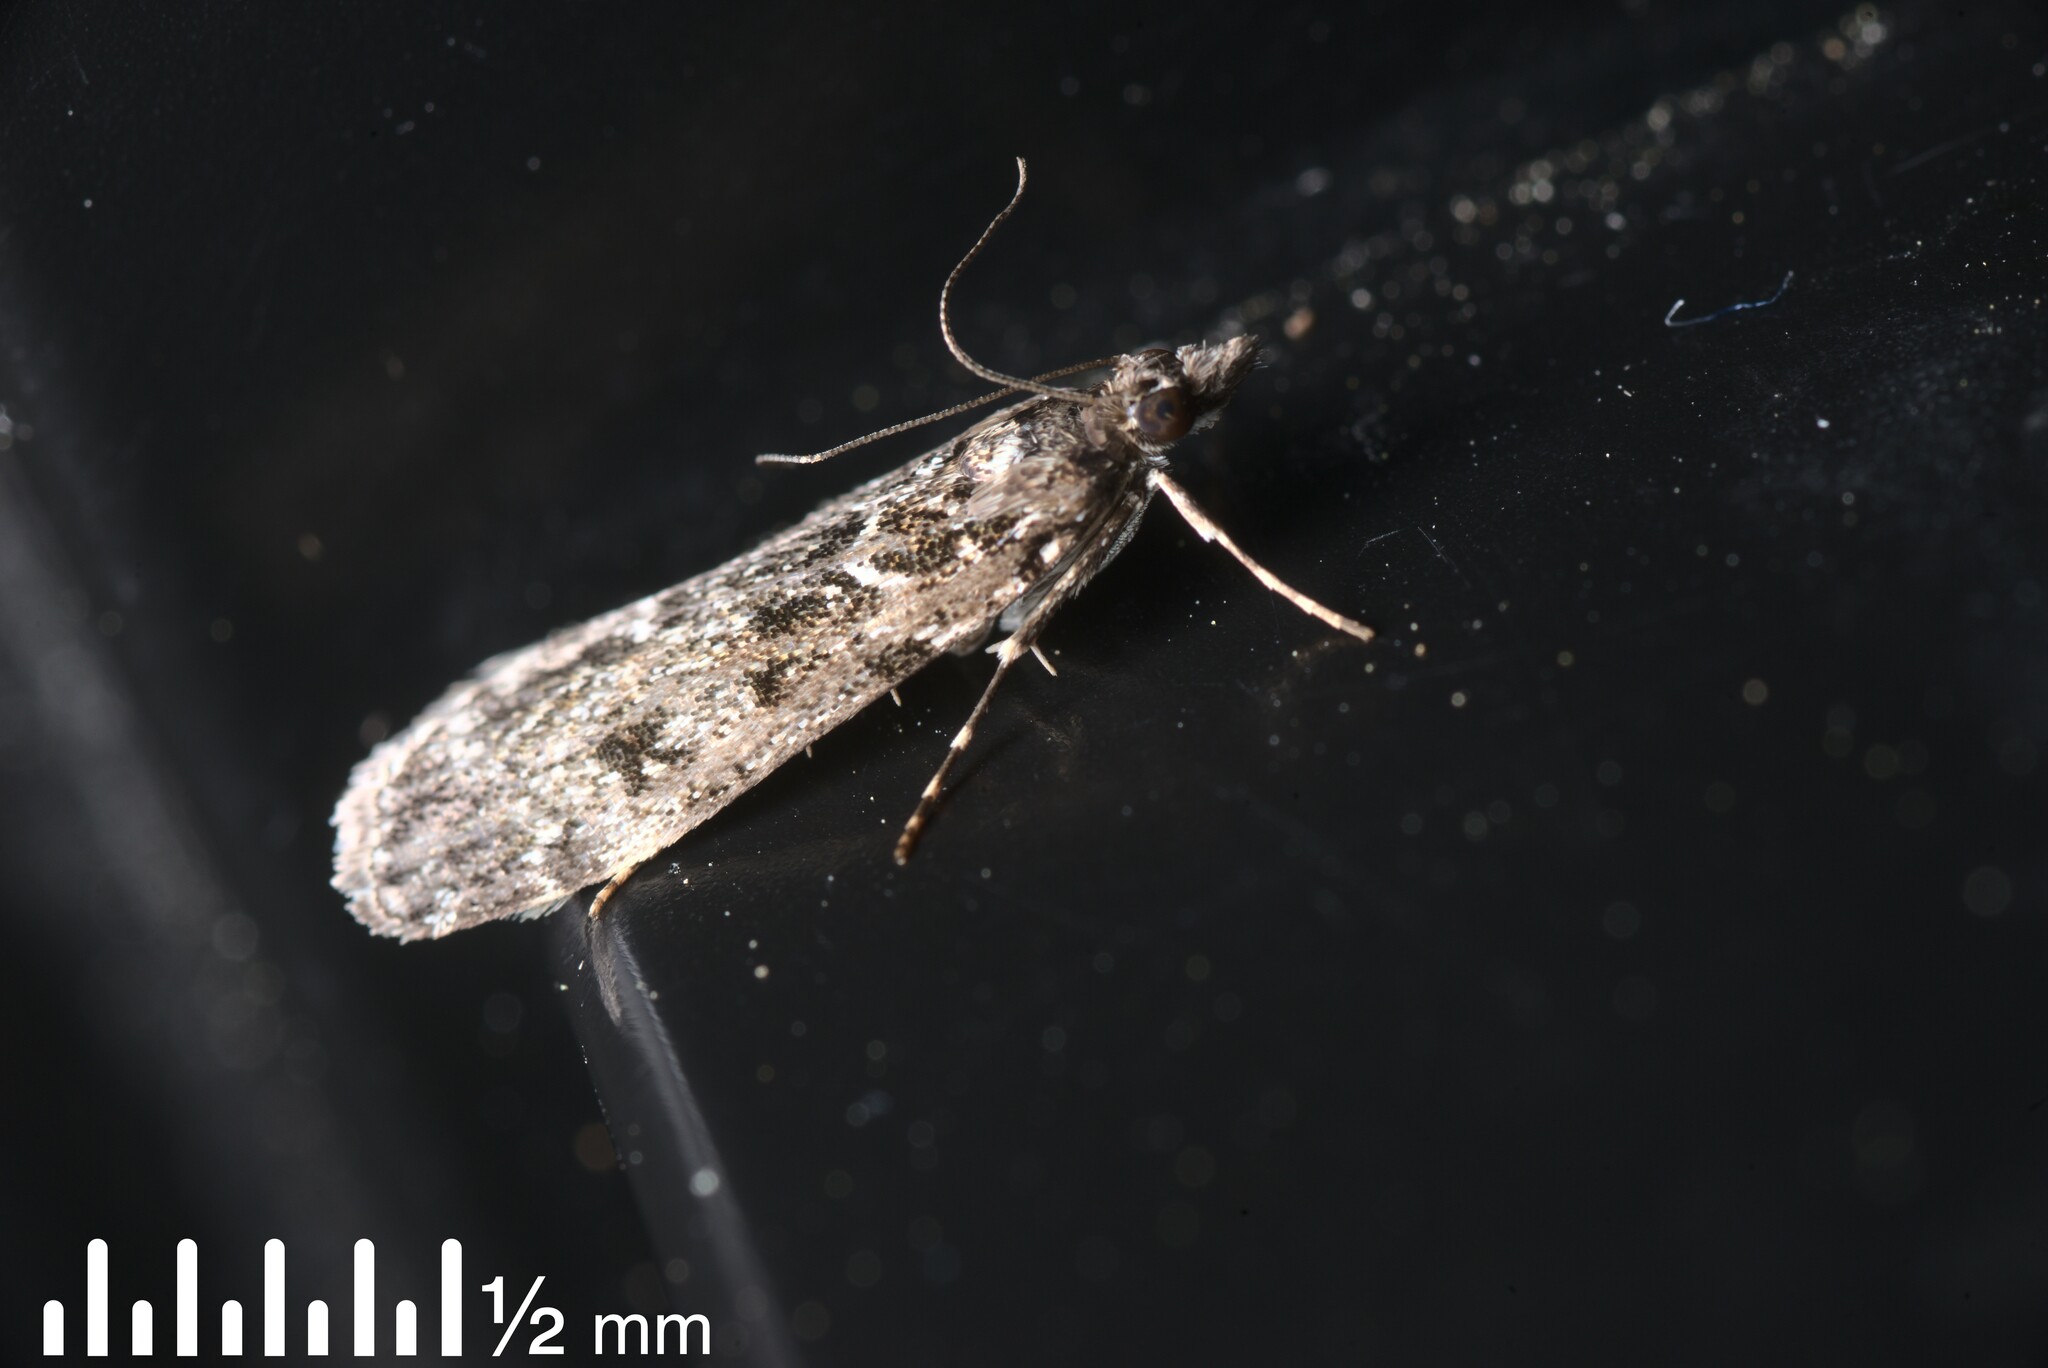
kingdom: Animalia
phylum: Arthropoda
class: Insecta
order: Lepidoptera
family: Crambidae
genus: Eudonia
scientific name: Eudonia philerga
